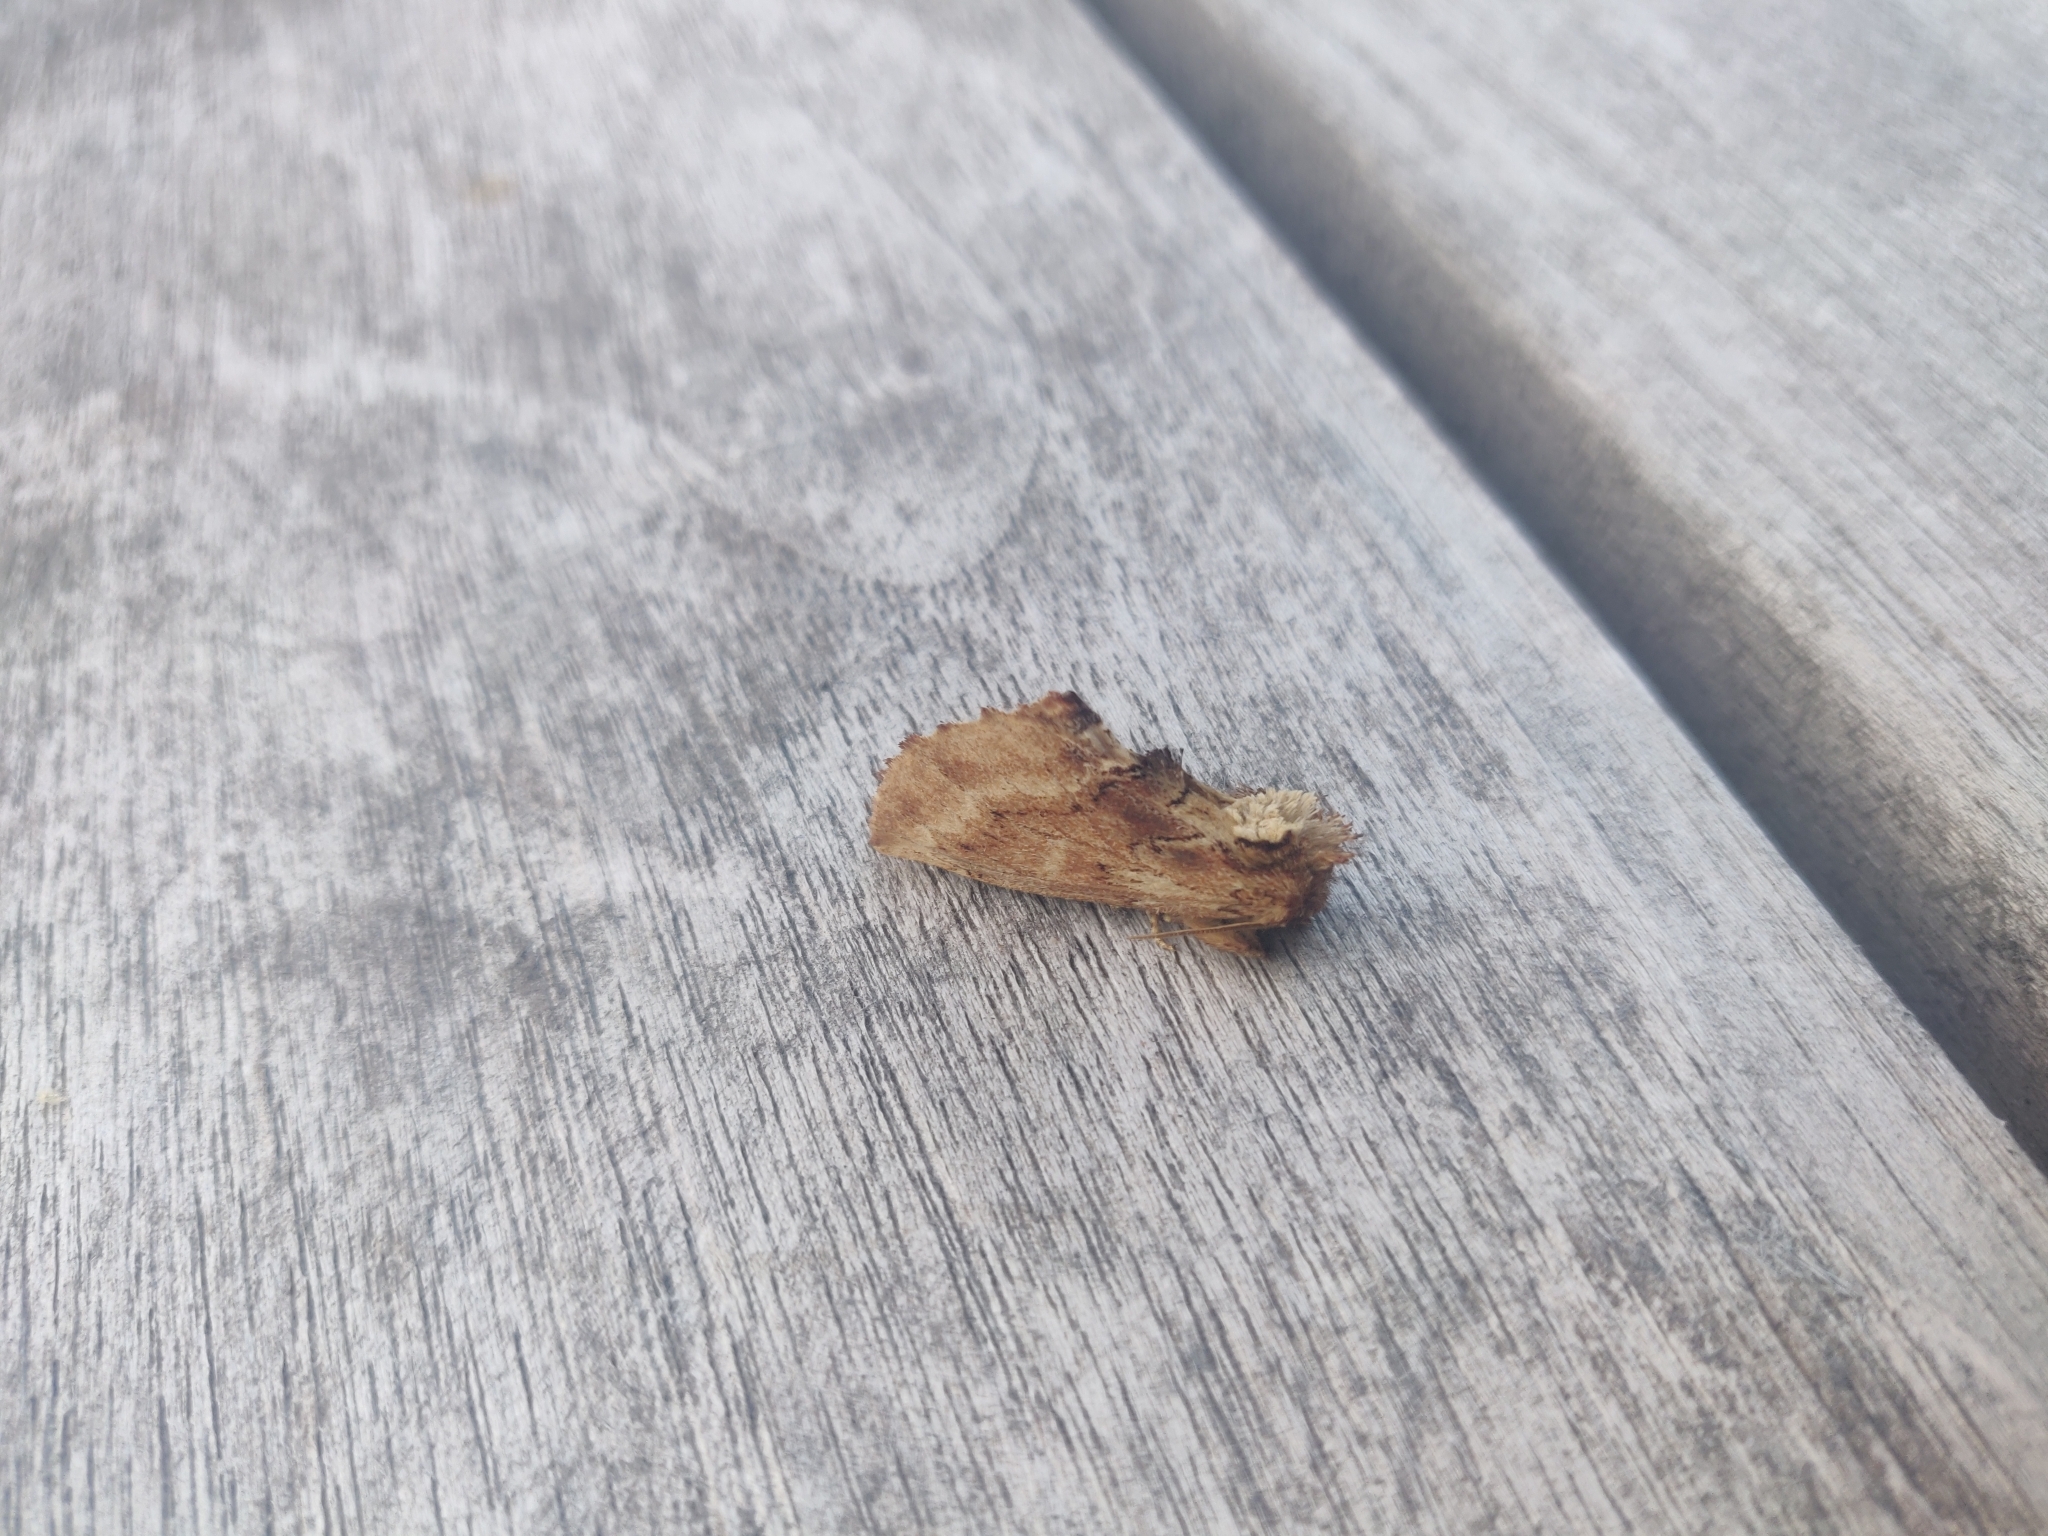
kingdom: Animalia
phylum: Arthropoda
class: Insecta
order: Lepidoptera
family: Notodontidae
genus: Ptilodon
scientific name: Ptilodon capucina
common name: Coxcomb prominent
